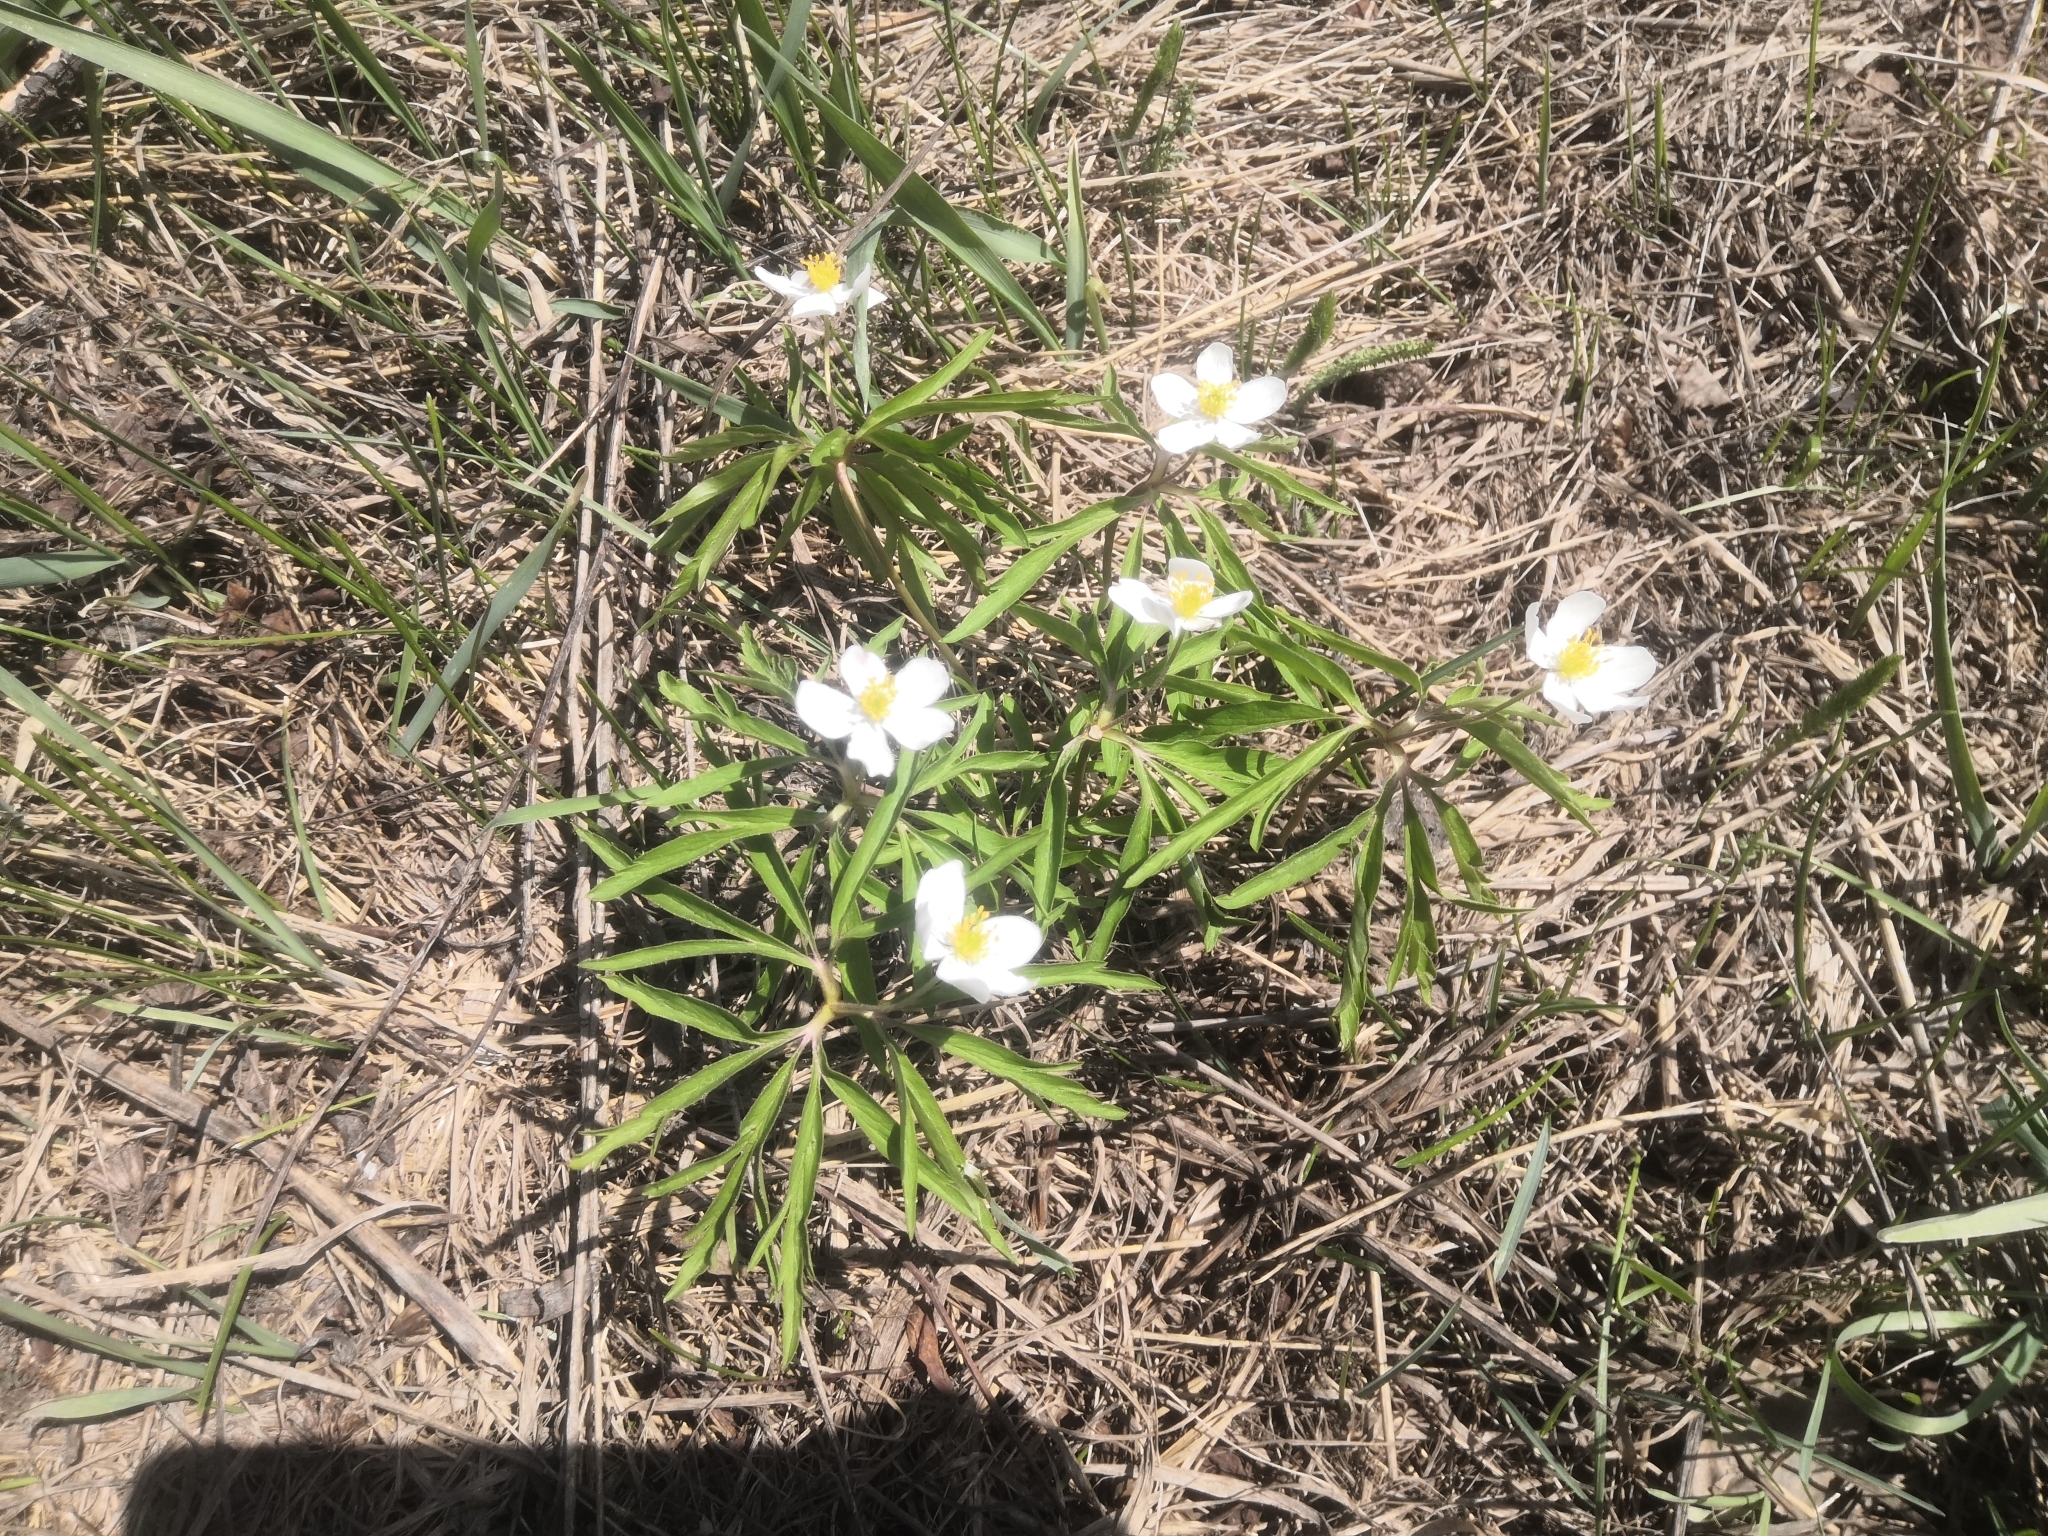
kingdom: Plantae
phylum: Tracheophyta
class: Magnoliopsida
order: Ranunculales
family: Ranunculaceae
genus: Anemone
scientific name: Anemone caerulea
